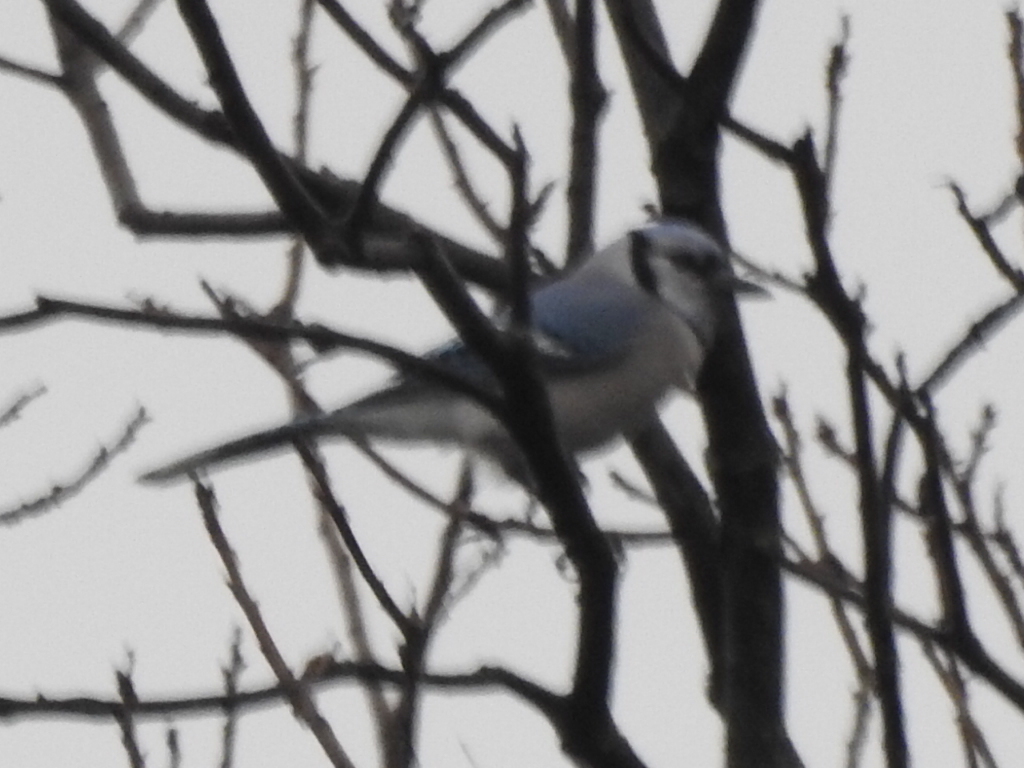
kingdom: Animalia
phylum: Chordata
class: Aves
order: Passeriformes
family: Corvidae
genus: Cyanocitta
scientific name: Cyanocitta cristata
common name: Blue jay
